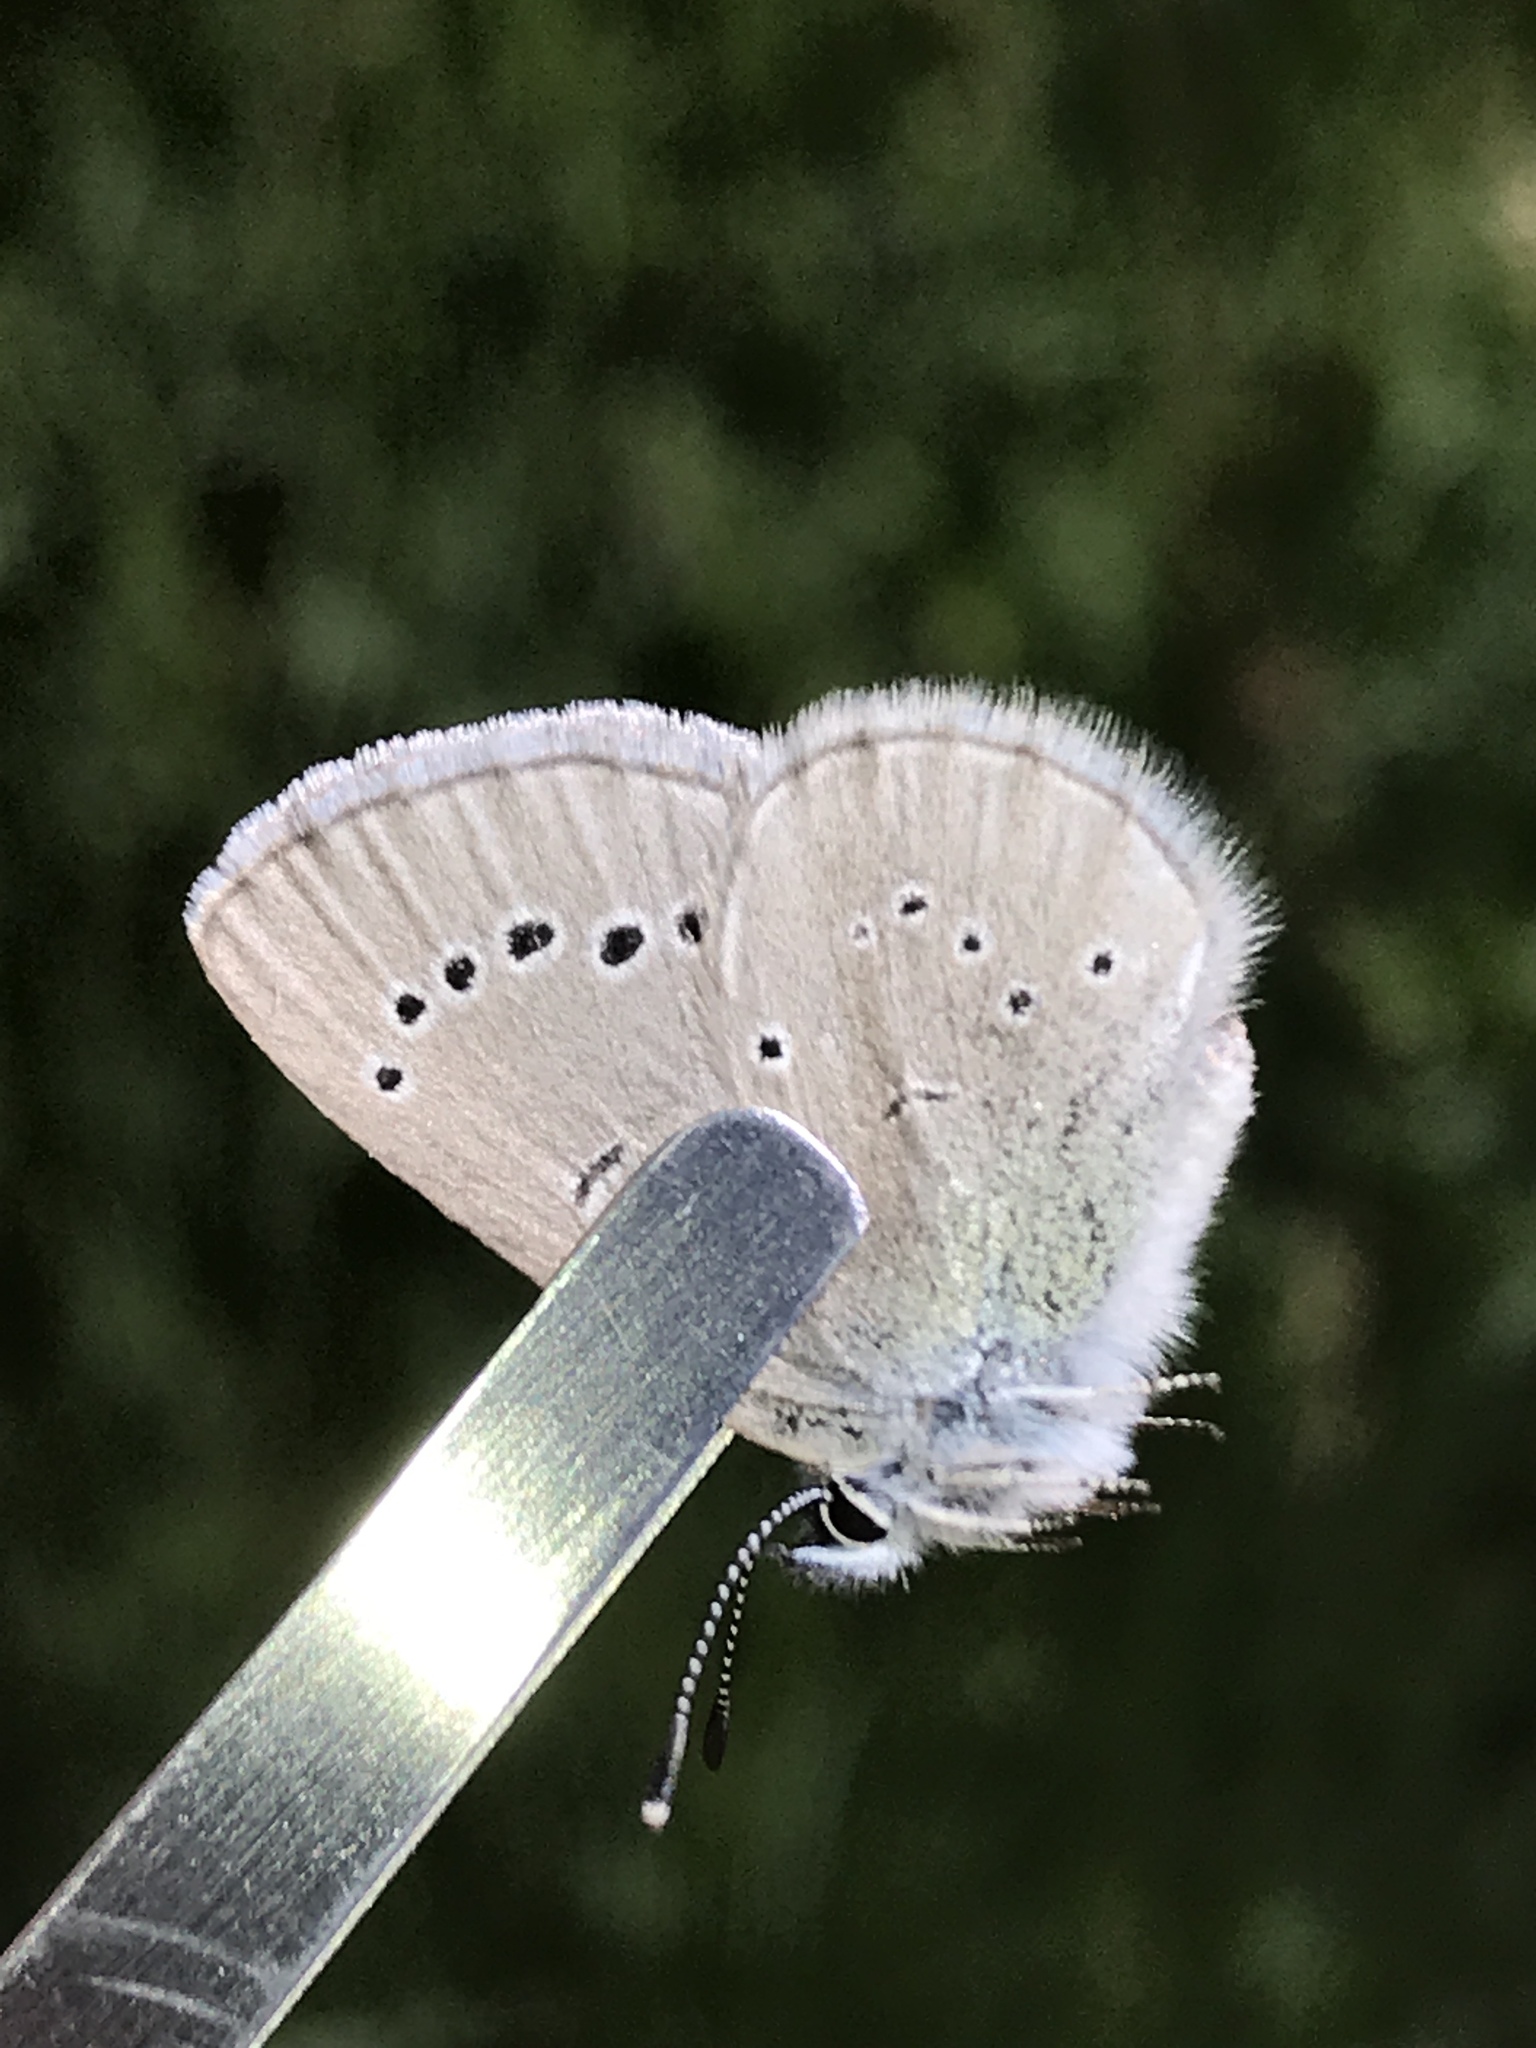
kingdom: Animalia
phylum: Arthropoda
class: Insecta
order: Lepidoptera
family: Lycaenidae
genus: Glaucopsyche
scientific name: Glaucopsyche lygdamus
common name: Silvery blue
